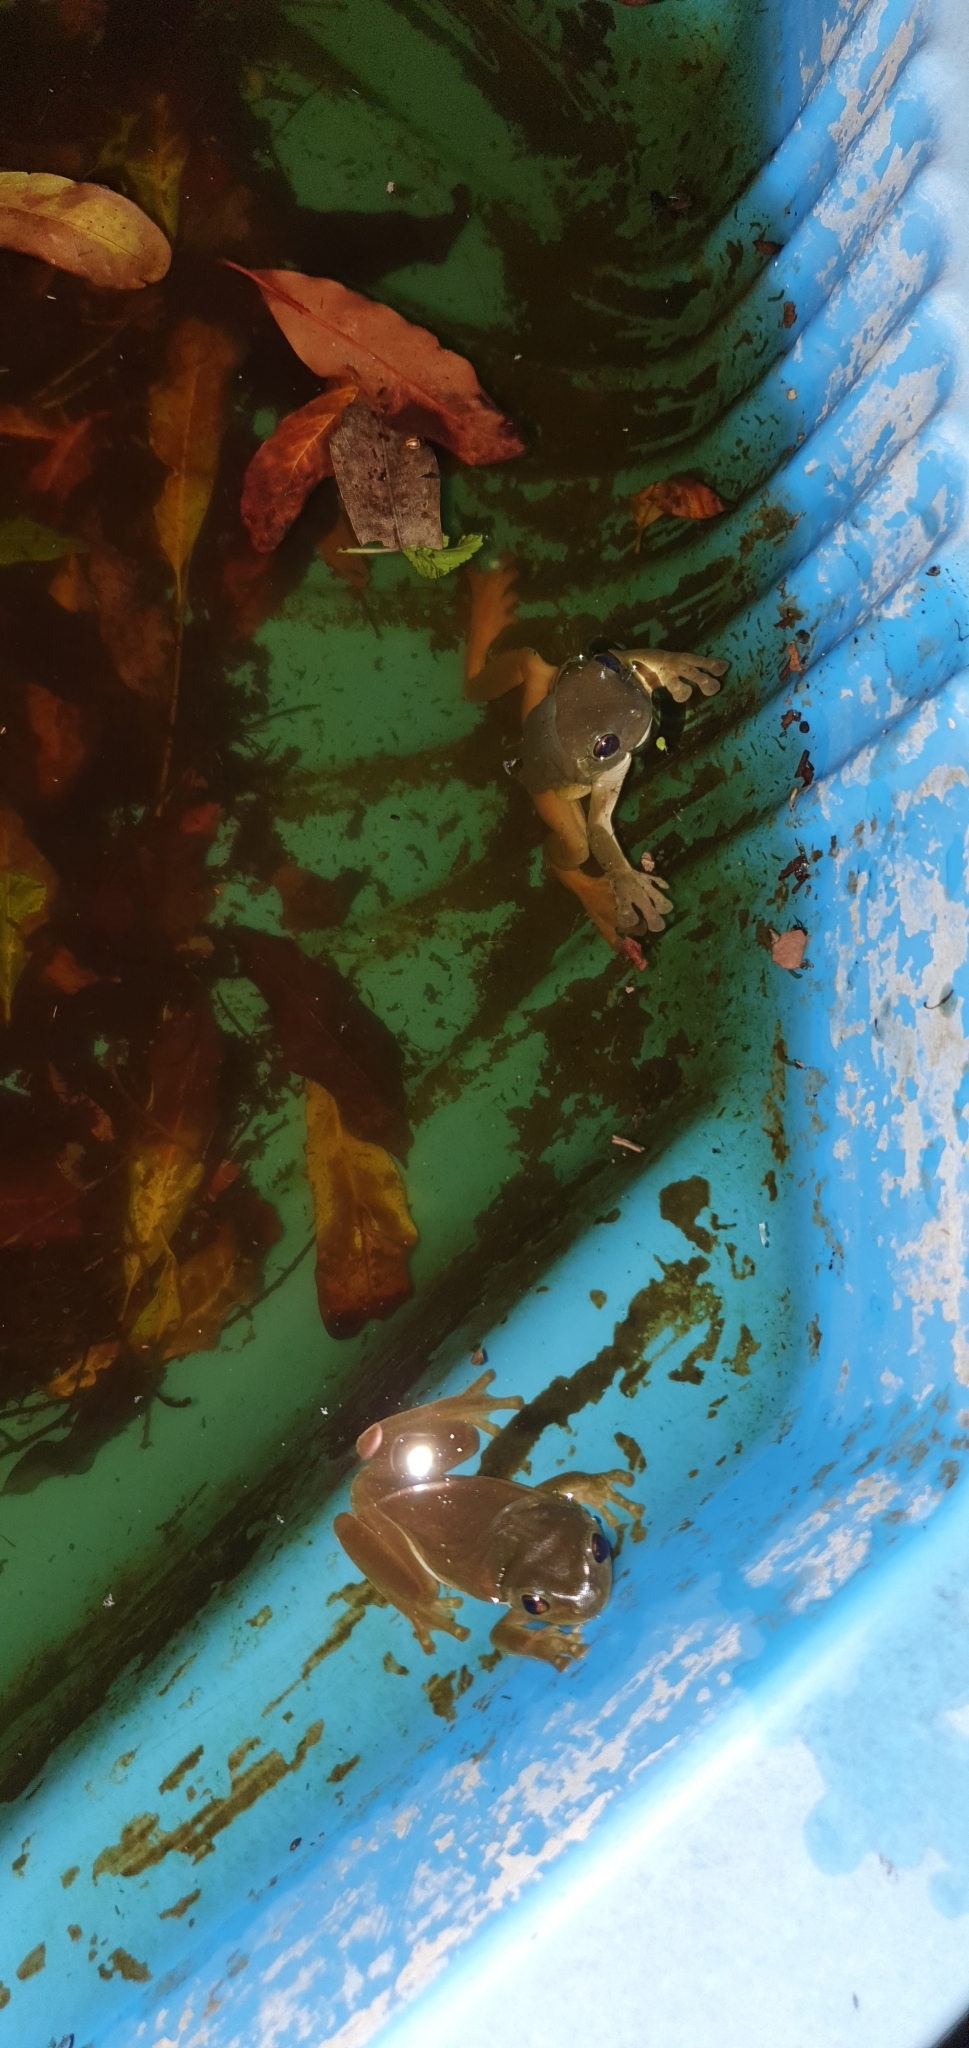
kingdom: Animalia
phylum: Chordata
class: Amphibia
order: Anura
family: Pelodryadidae
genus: Ranoidea
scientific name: Ranoidea caerulea
